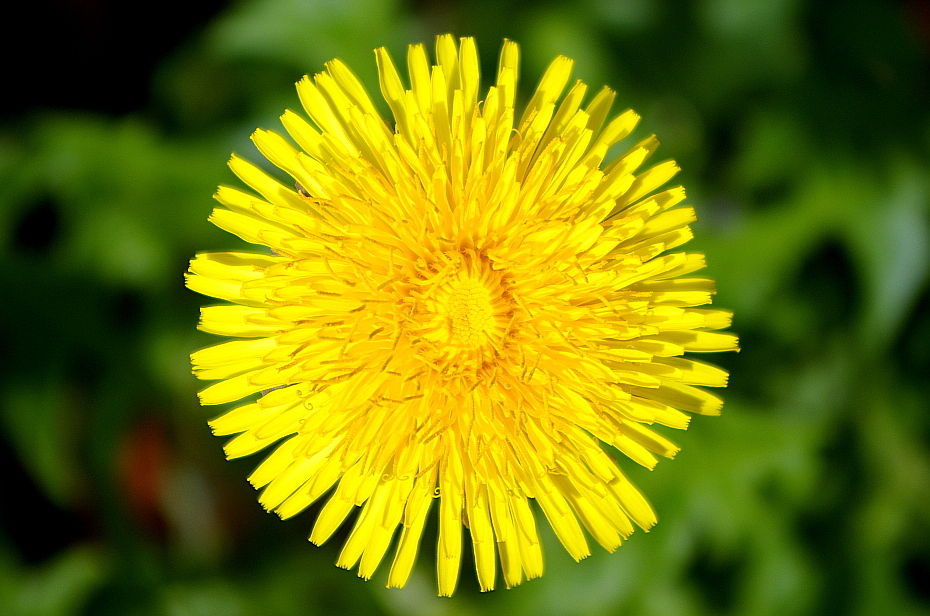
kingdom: Plantae
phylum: Tracheophyta
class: Magnoliopsida
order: Asterales
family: Asteraceae
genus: Taraxacum
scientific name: Taraxacum officinale
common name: Common dandelion
